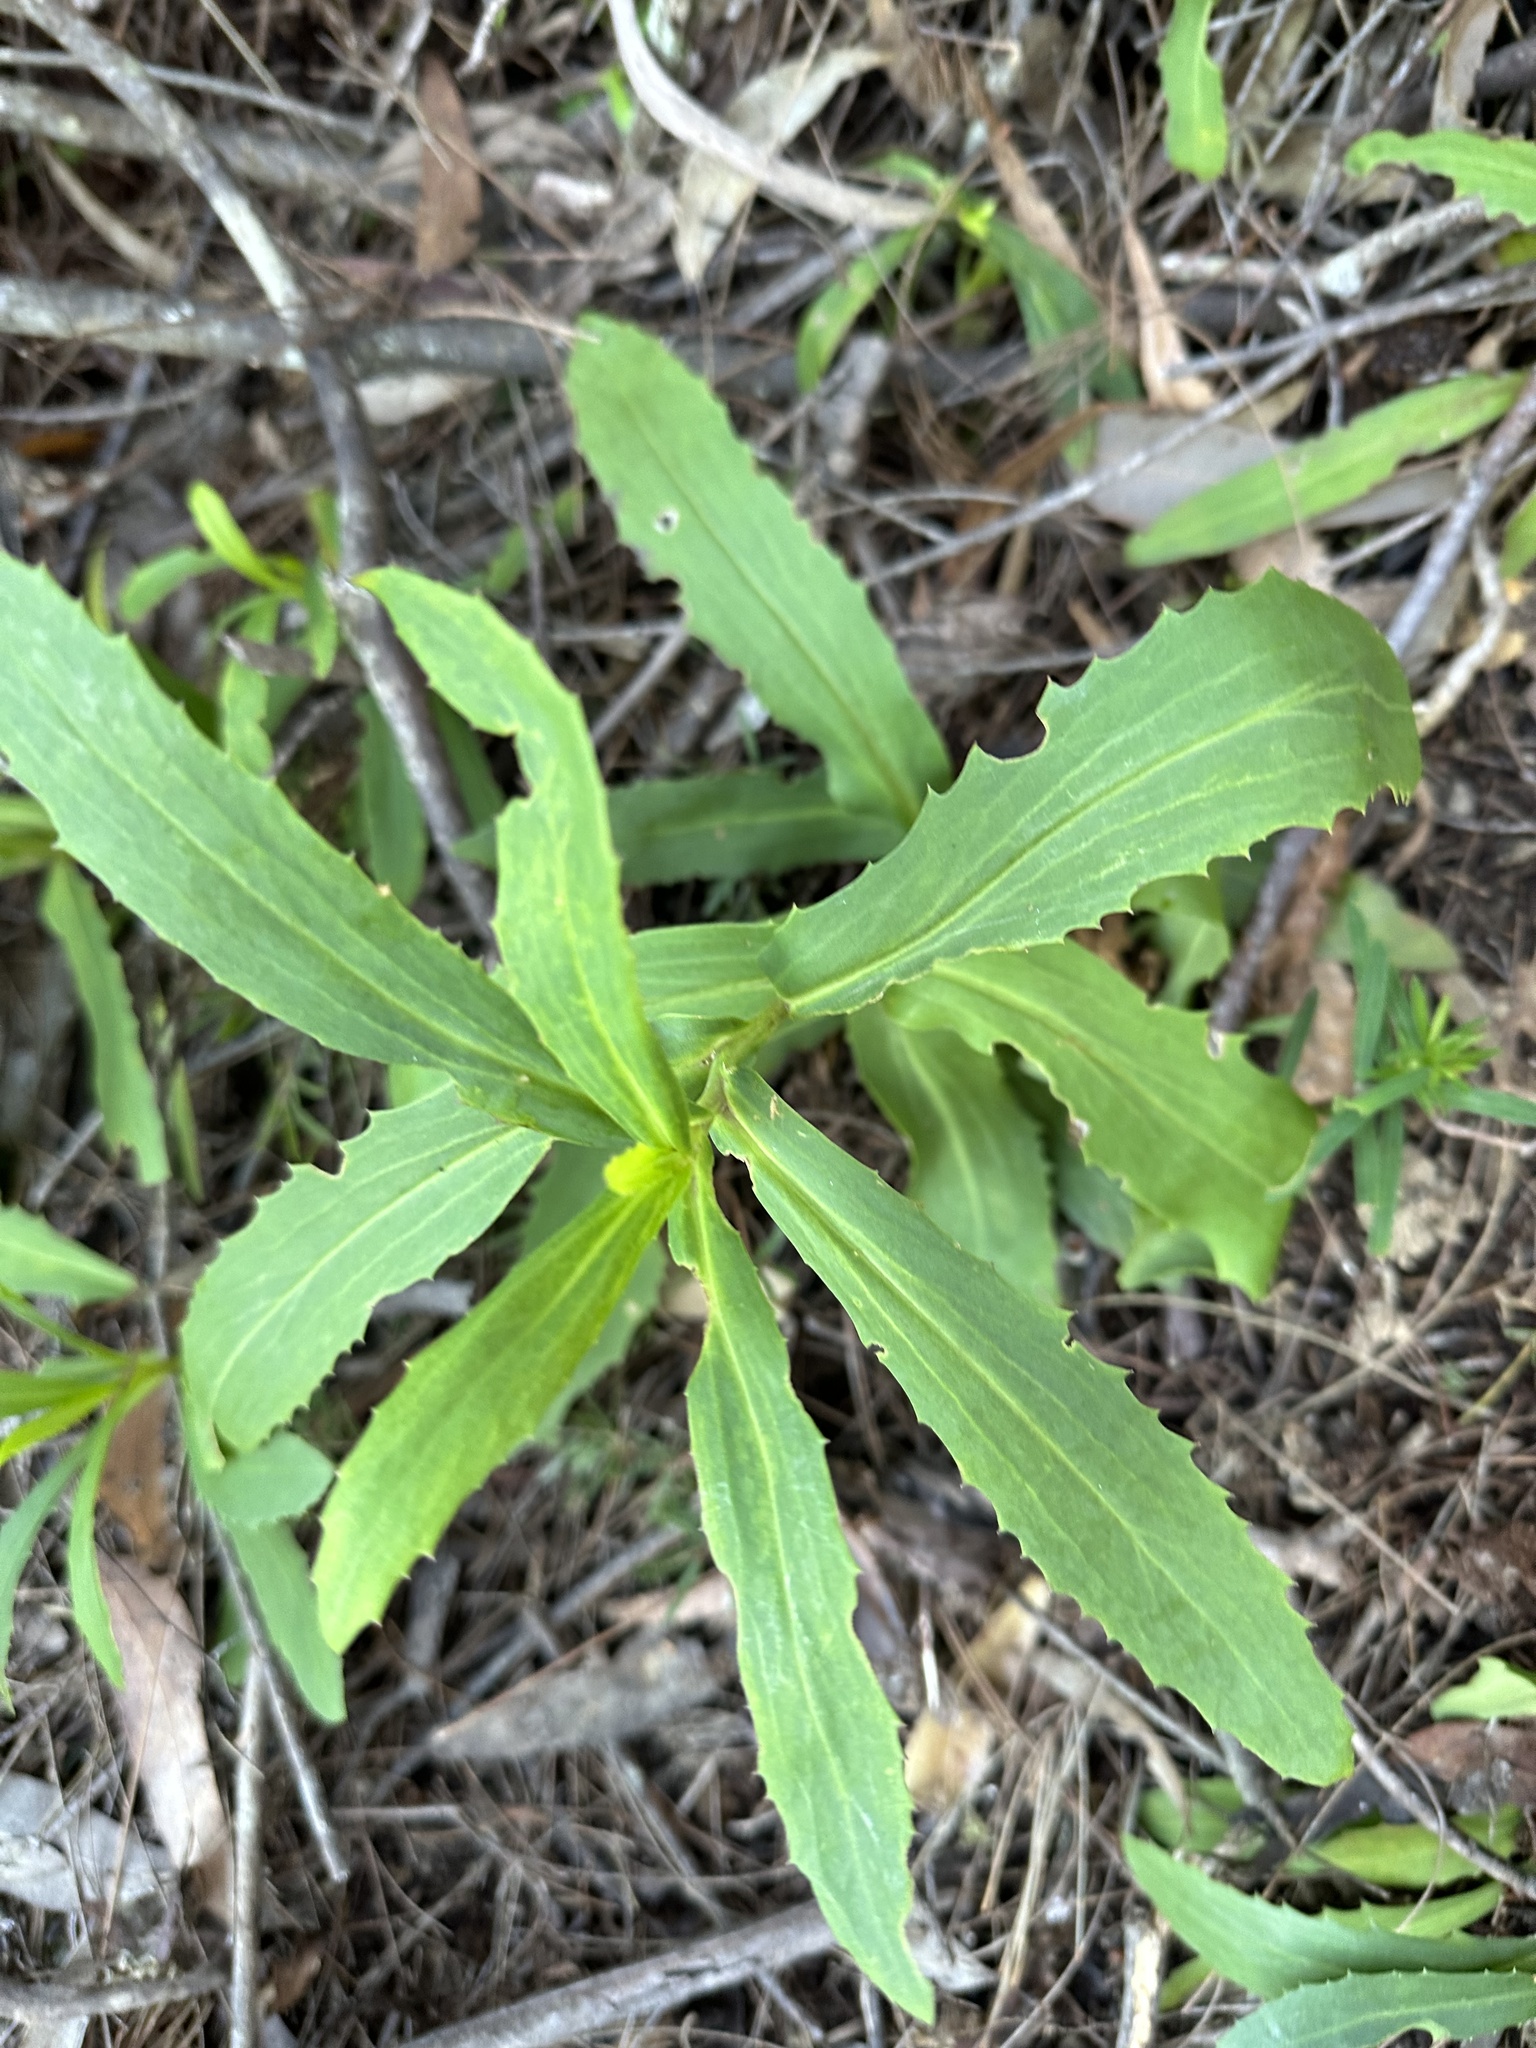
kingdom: Plantae
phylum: Tracheophyta
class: Magnoliopsida
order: Asterales
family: Goodeniaceae
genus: Goodenia
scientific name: Goodenia decurrens
